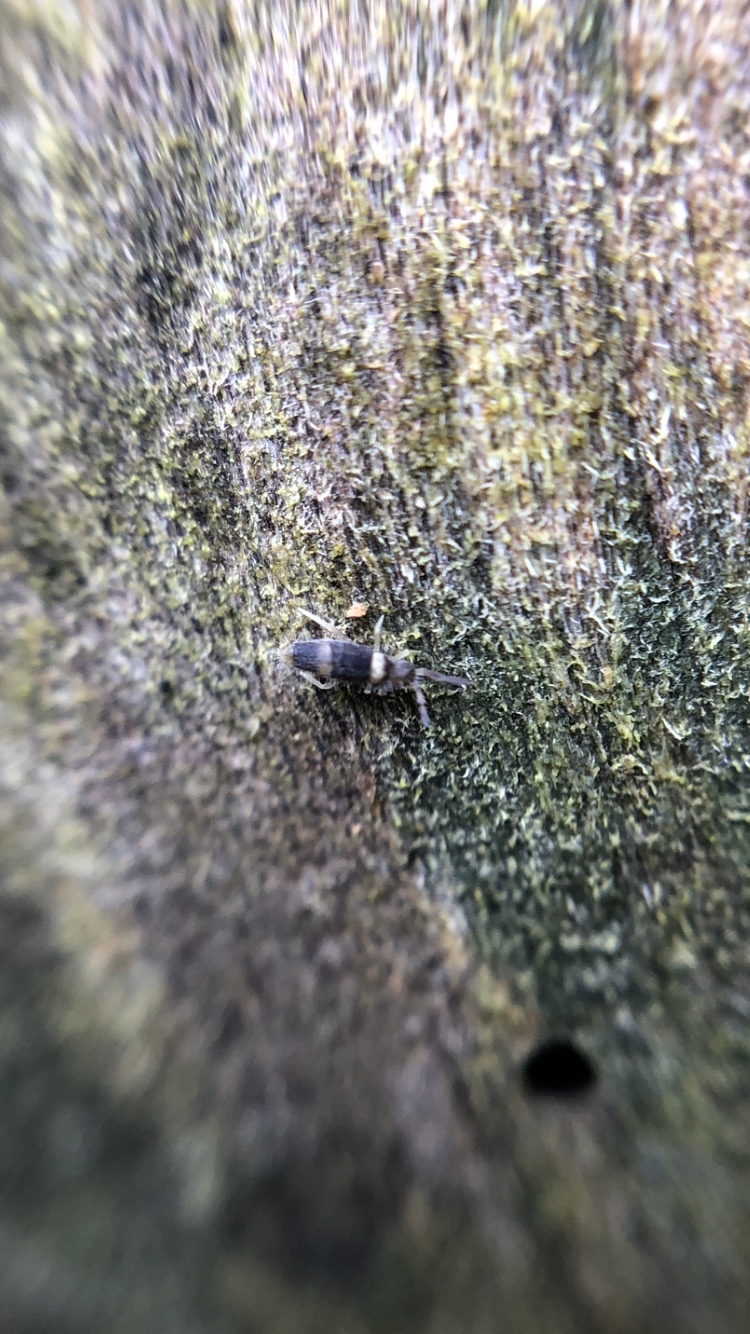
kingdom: Animalia
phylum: Arthropoda
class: Collembola
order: Entomobryomorpha
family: Entomobryidae
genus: Entomobrya
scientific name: Entomobrya albocincta
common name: Springtail
